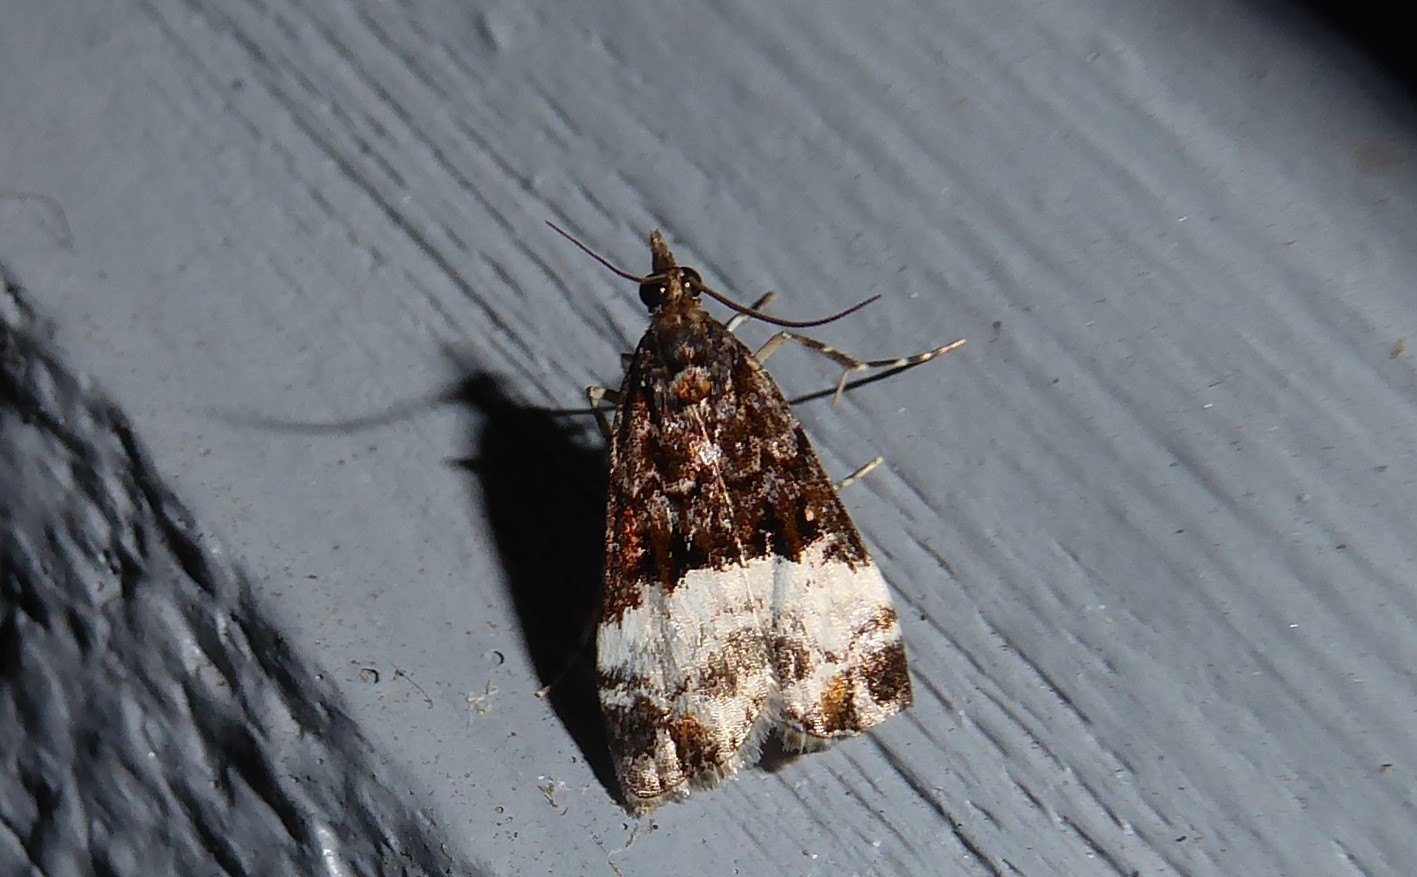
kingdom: Animalia
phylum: Arthropoda
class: Insecta
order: Lepidoptera
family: Crambidae
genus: Scoparia
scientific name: Scoparia minusculalis
